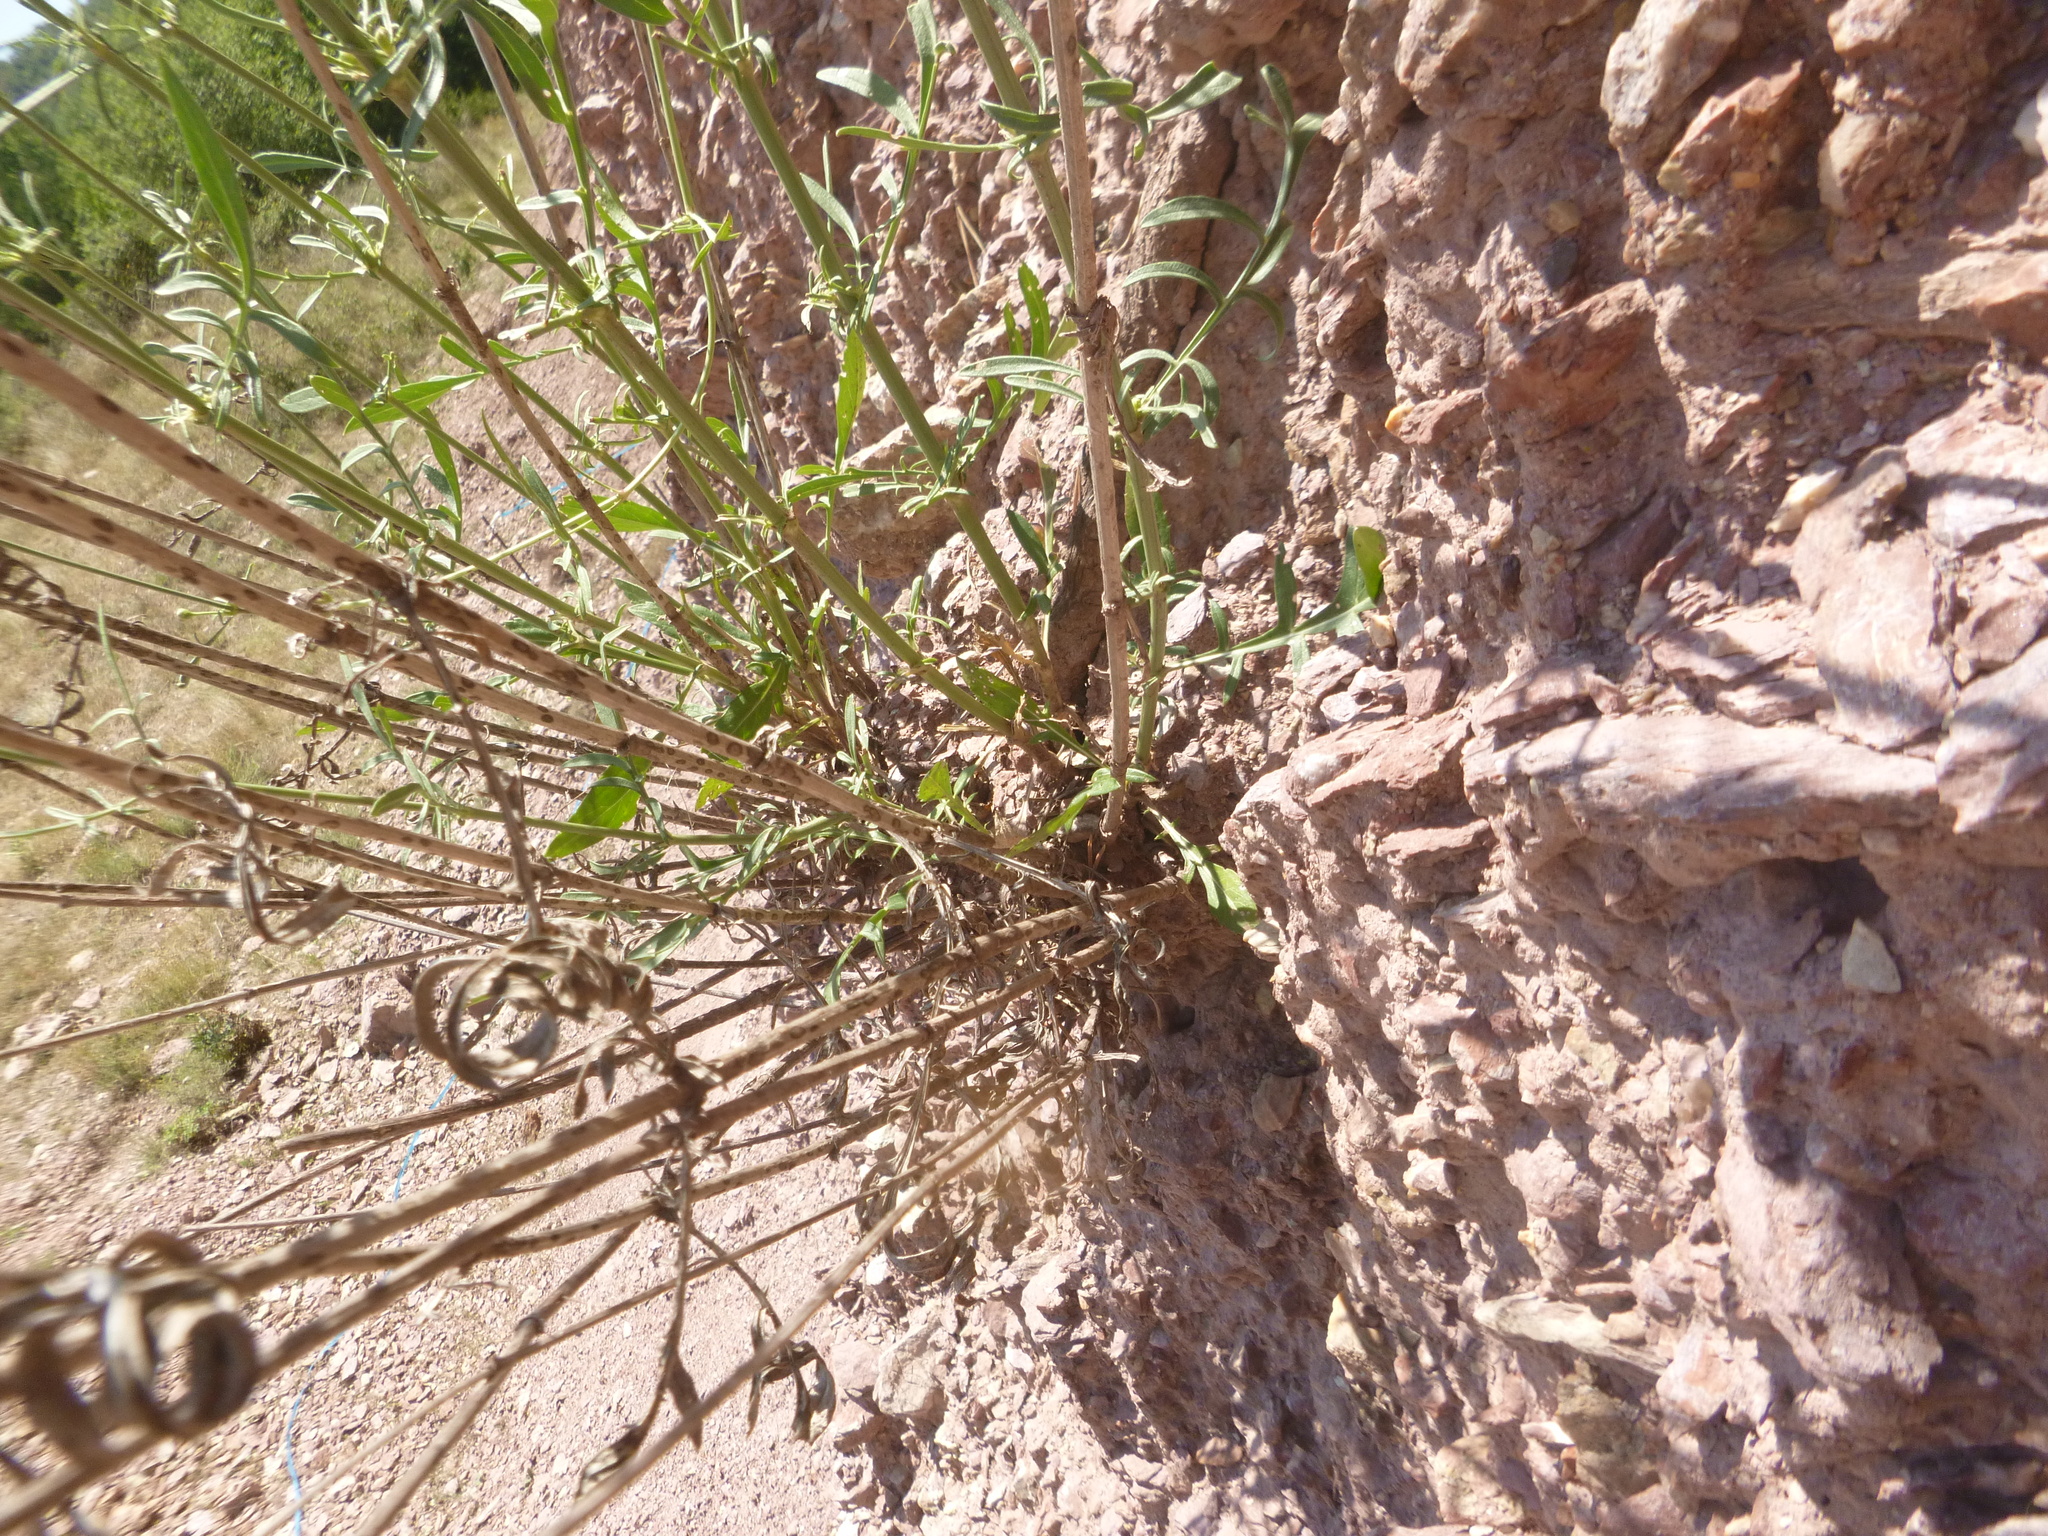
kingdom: Plantae
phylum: Tracheophyta
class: Magnoliopsida
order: Dipsacales
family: Caprifoliaceae
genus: Cephalaria
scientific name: Cephalaria leucantha
